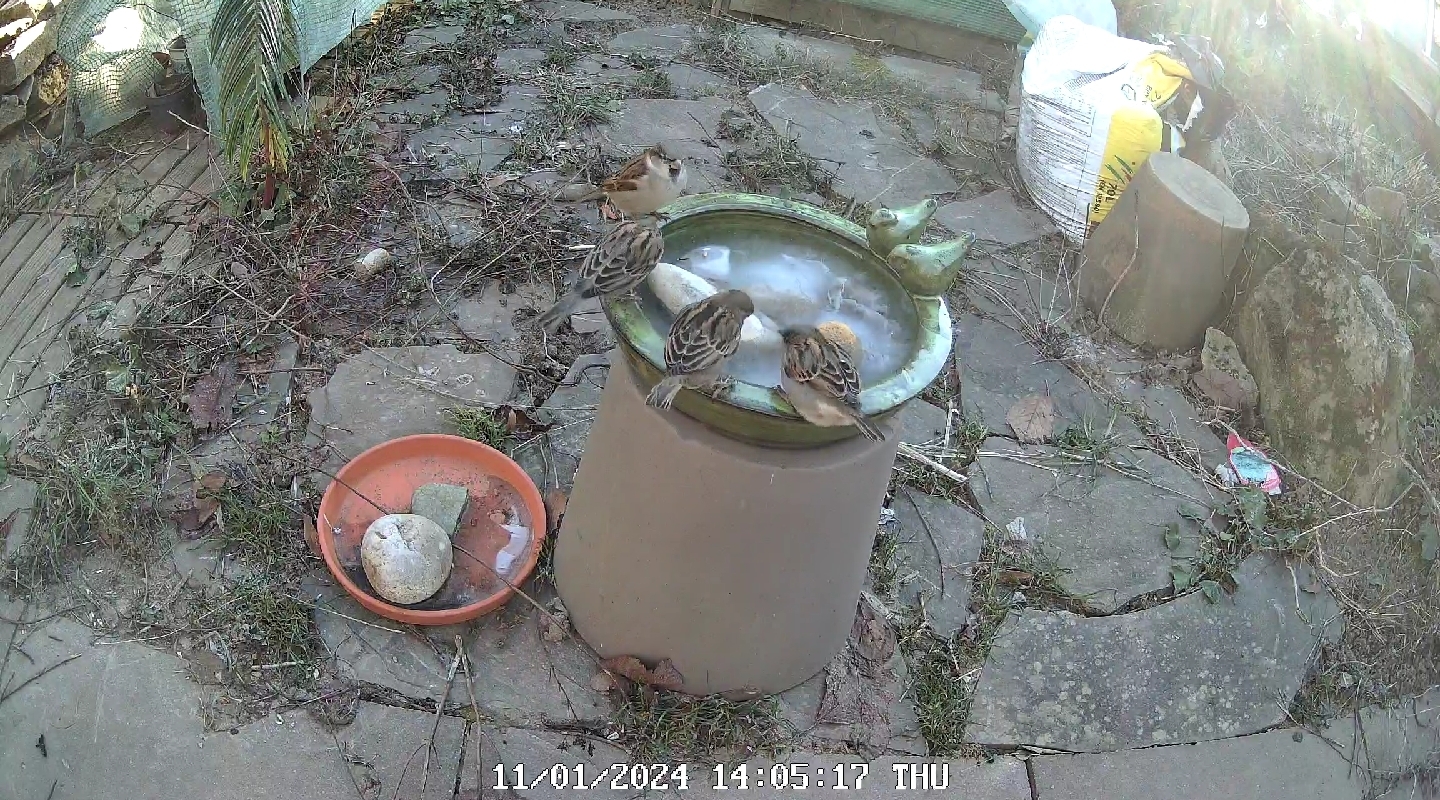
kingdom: Animalia
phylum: Chordata
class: Aves
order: Passeriformes
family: Passeridae
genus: Passer
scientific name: Passer domesticus
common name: House sparrow
